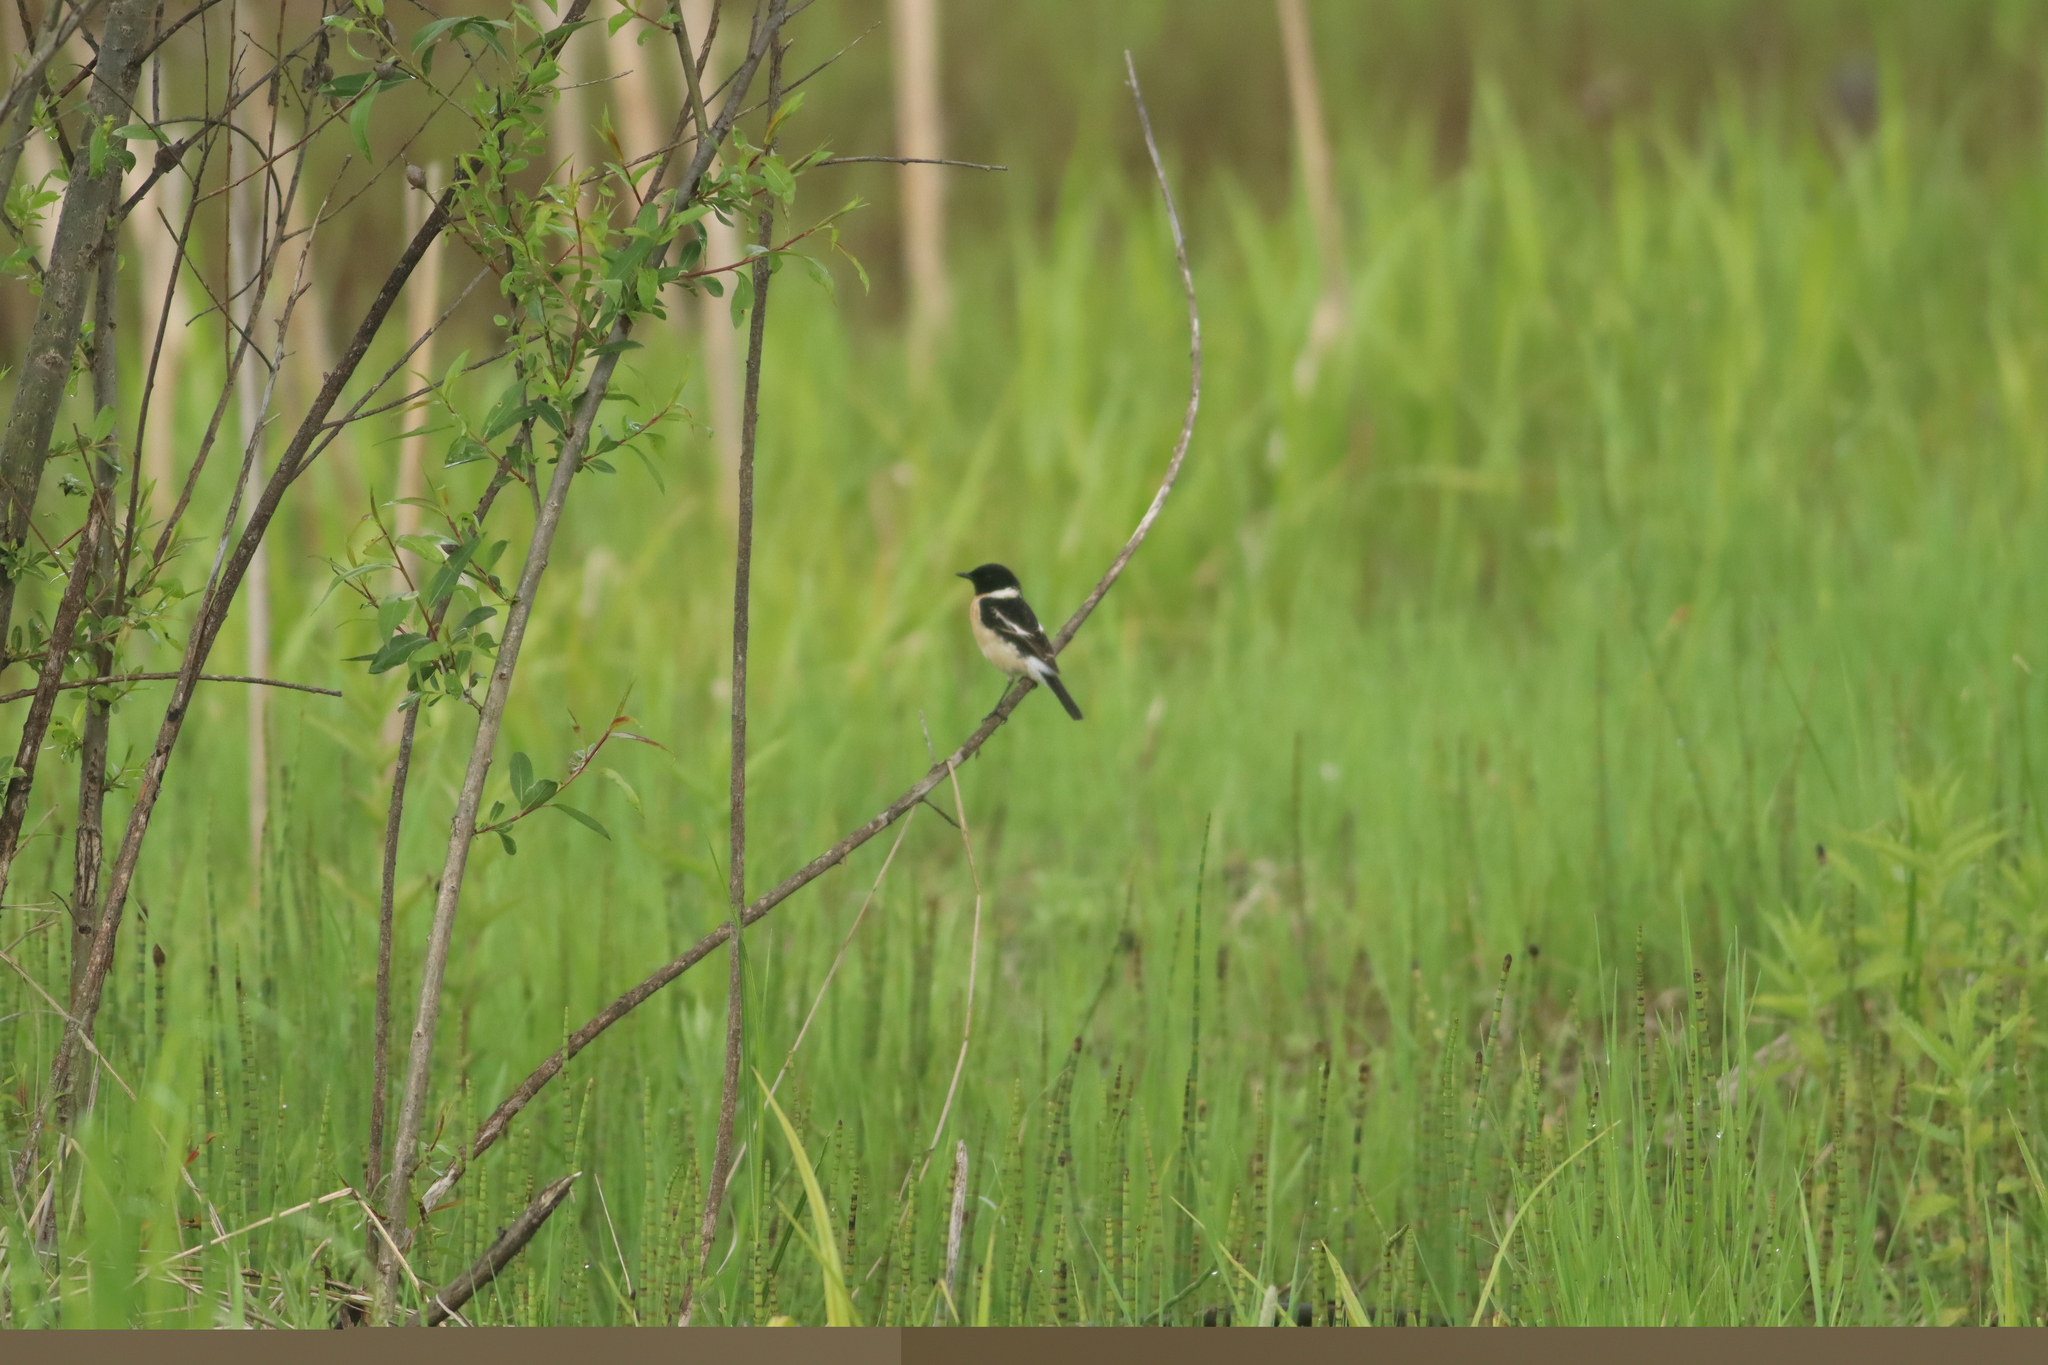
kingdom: Animalia
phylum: Chordata
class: Aves
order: Passeriformes
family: Muscicapidae
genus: Saxicola
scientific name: Saxicola stejnegeri
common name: Stejneger's stonechat
